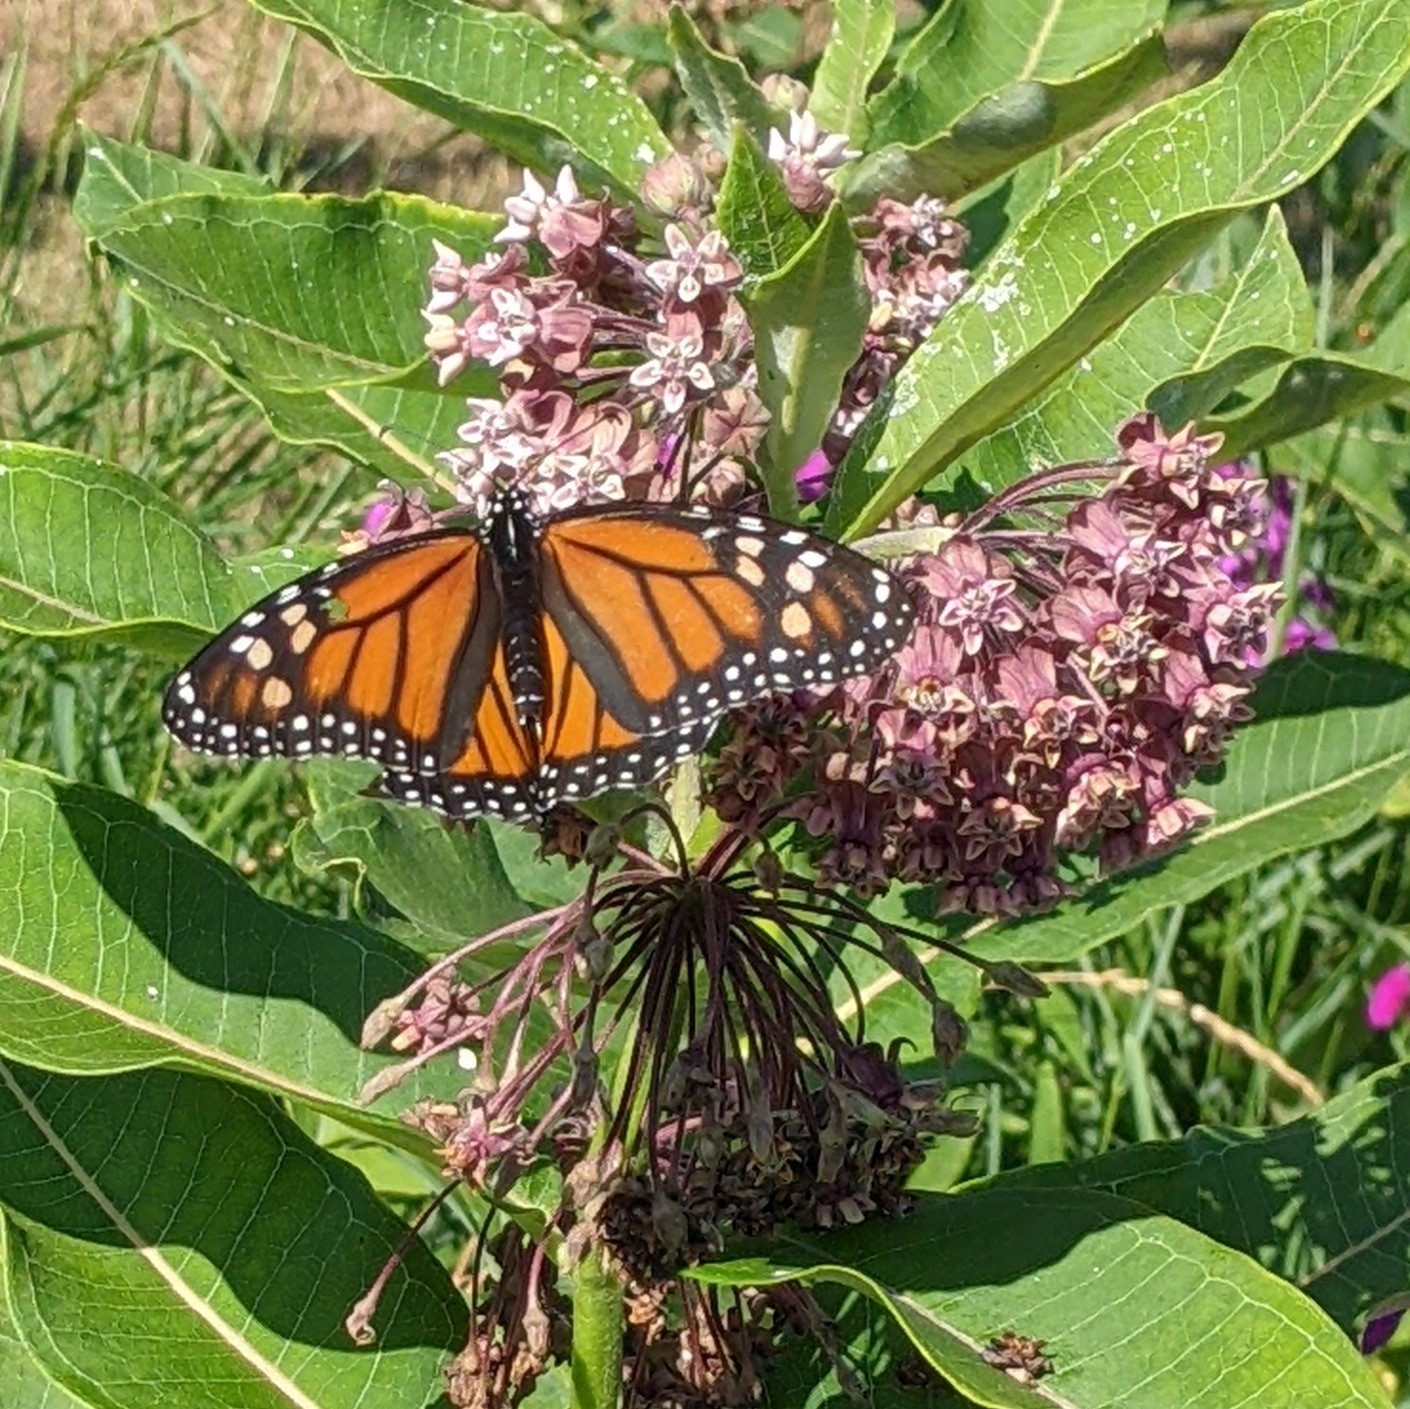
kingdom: Animalia
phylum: Arthropoda
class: Insecta
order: Lepidoptera
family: Nymphalidae
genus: Danaus
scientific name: Danaus plexippus
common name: Monarch
